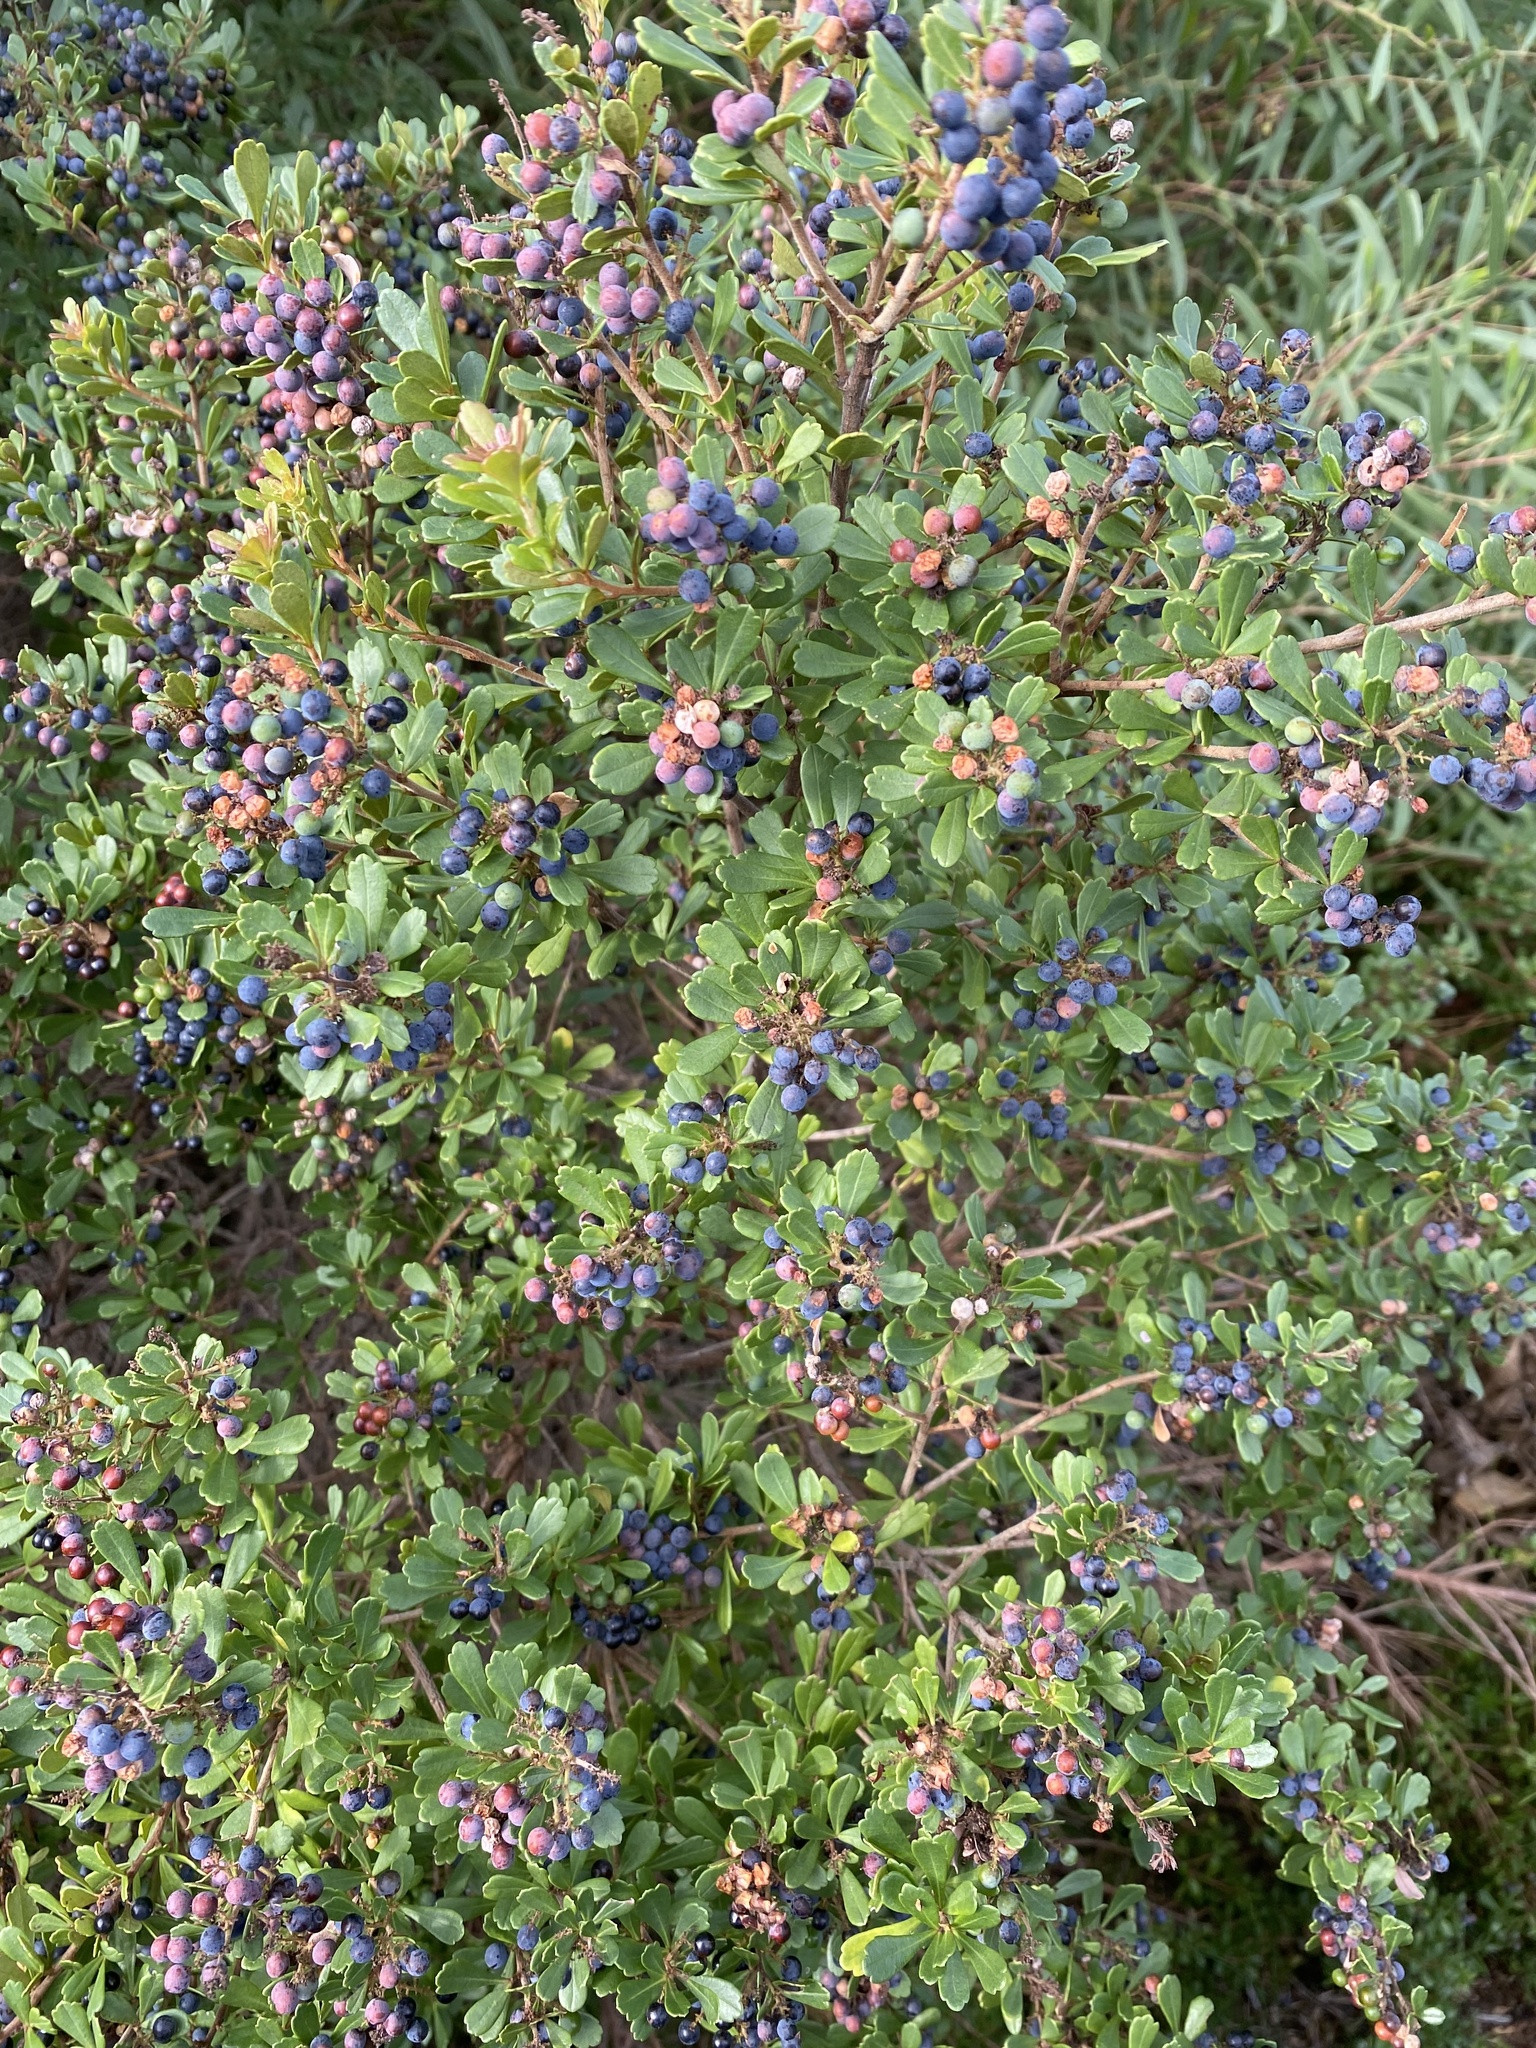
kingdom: Plantae
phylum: Tracheophyta
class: Magnoliopsida
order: Sapindales
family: Anacardiaceae
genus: Searsia
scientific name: Searsia crenata
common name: Crowberry
